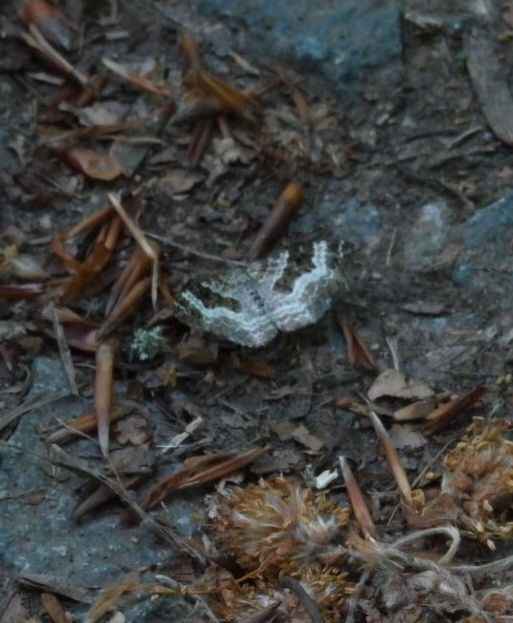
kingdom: Animalia
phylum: Arthropoda
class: Insecta
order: Lepidoptera
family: Geometridae
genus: Epirrhoe
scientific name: Epirrhoe alternata
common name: Common carpet
